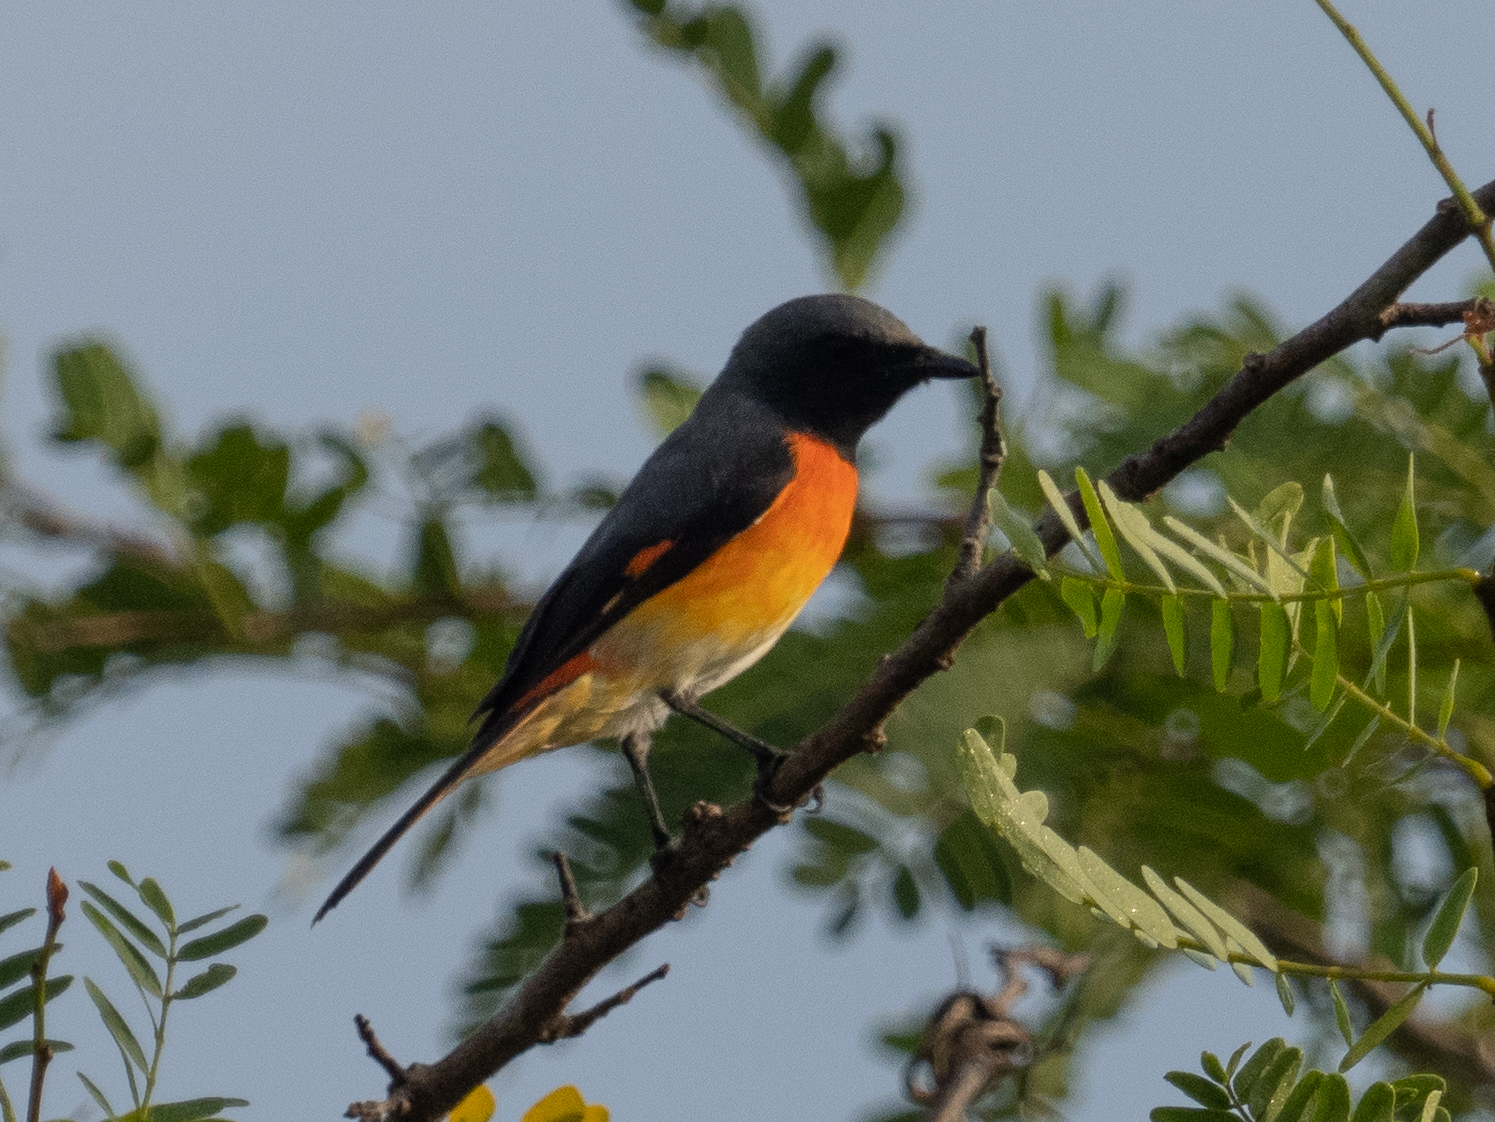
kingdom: Animalia
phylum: Chordata
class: Aves
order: Passeriformes
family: Campephagidae
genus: Pericrocotus
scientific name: Pericrocotus cinnamomeus
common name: Small minivet
